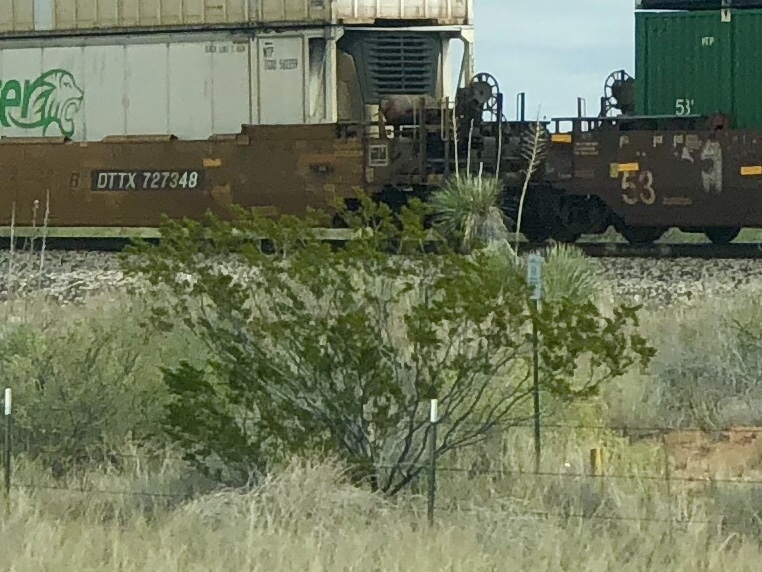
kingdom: Plantae
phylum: Tracheophyta
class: Magnoliopsida
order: Zygophyllales
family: Zygophyllaceae
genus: Larrea
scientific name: Larrea tridentata
